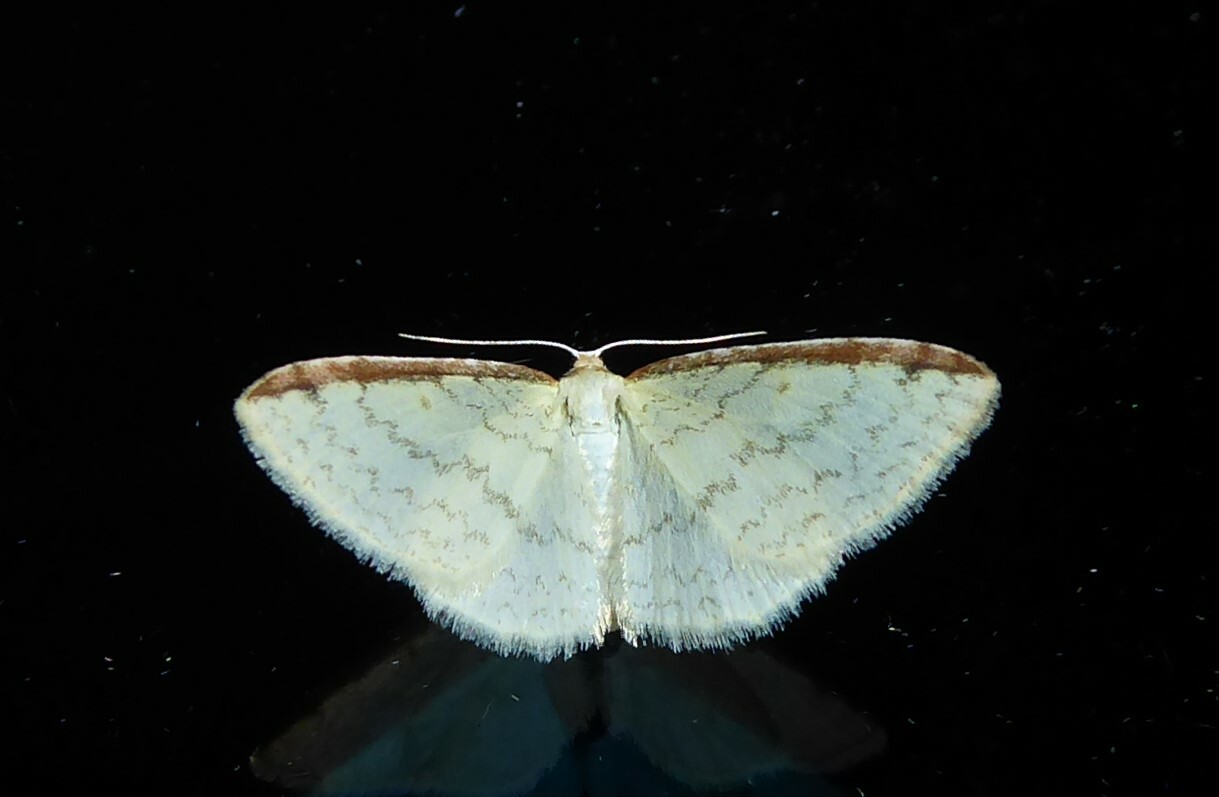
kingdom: Animalia
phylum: Arthropoda
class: Insecta
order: Lepidoptera
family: Geometridae
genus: Epiphryne
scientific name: Epiphryne undosata
